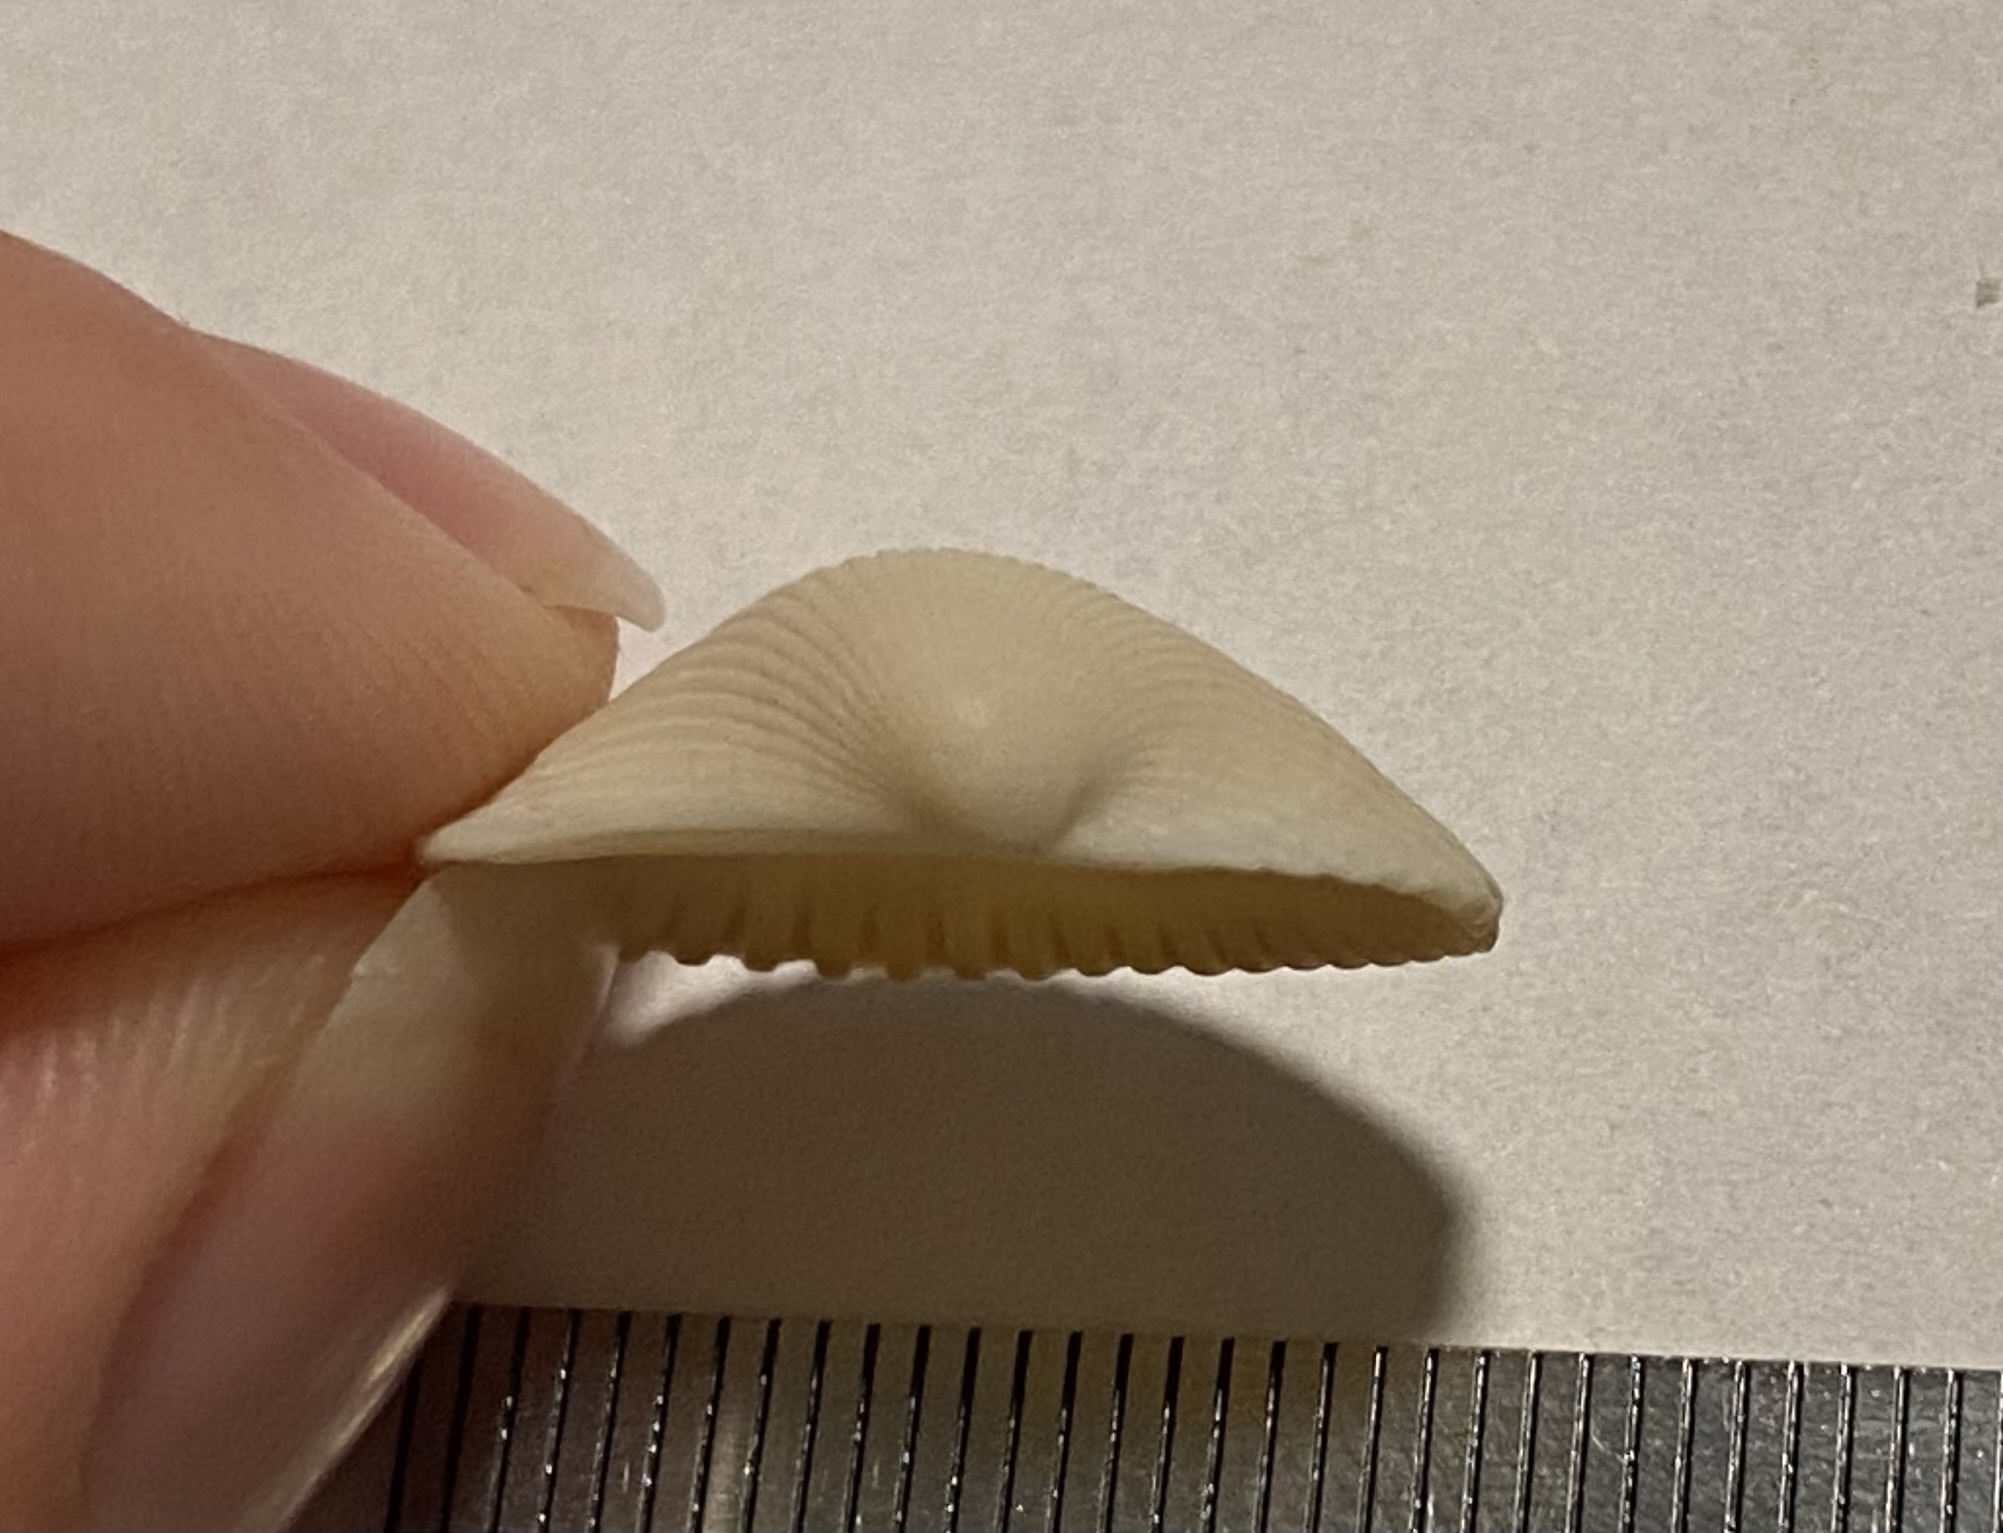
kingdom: Animalia
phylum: Mollusca
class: Bivalvia
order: Arcida
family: Arcidae
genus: Lunarca
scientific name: Lunarca ovalis
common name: Blood ark
